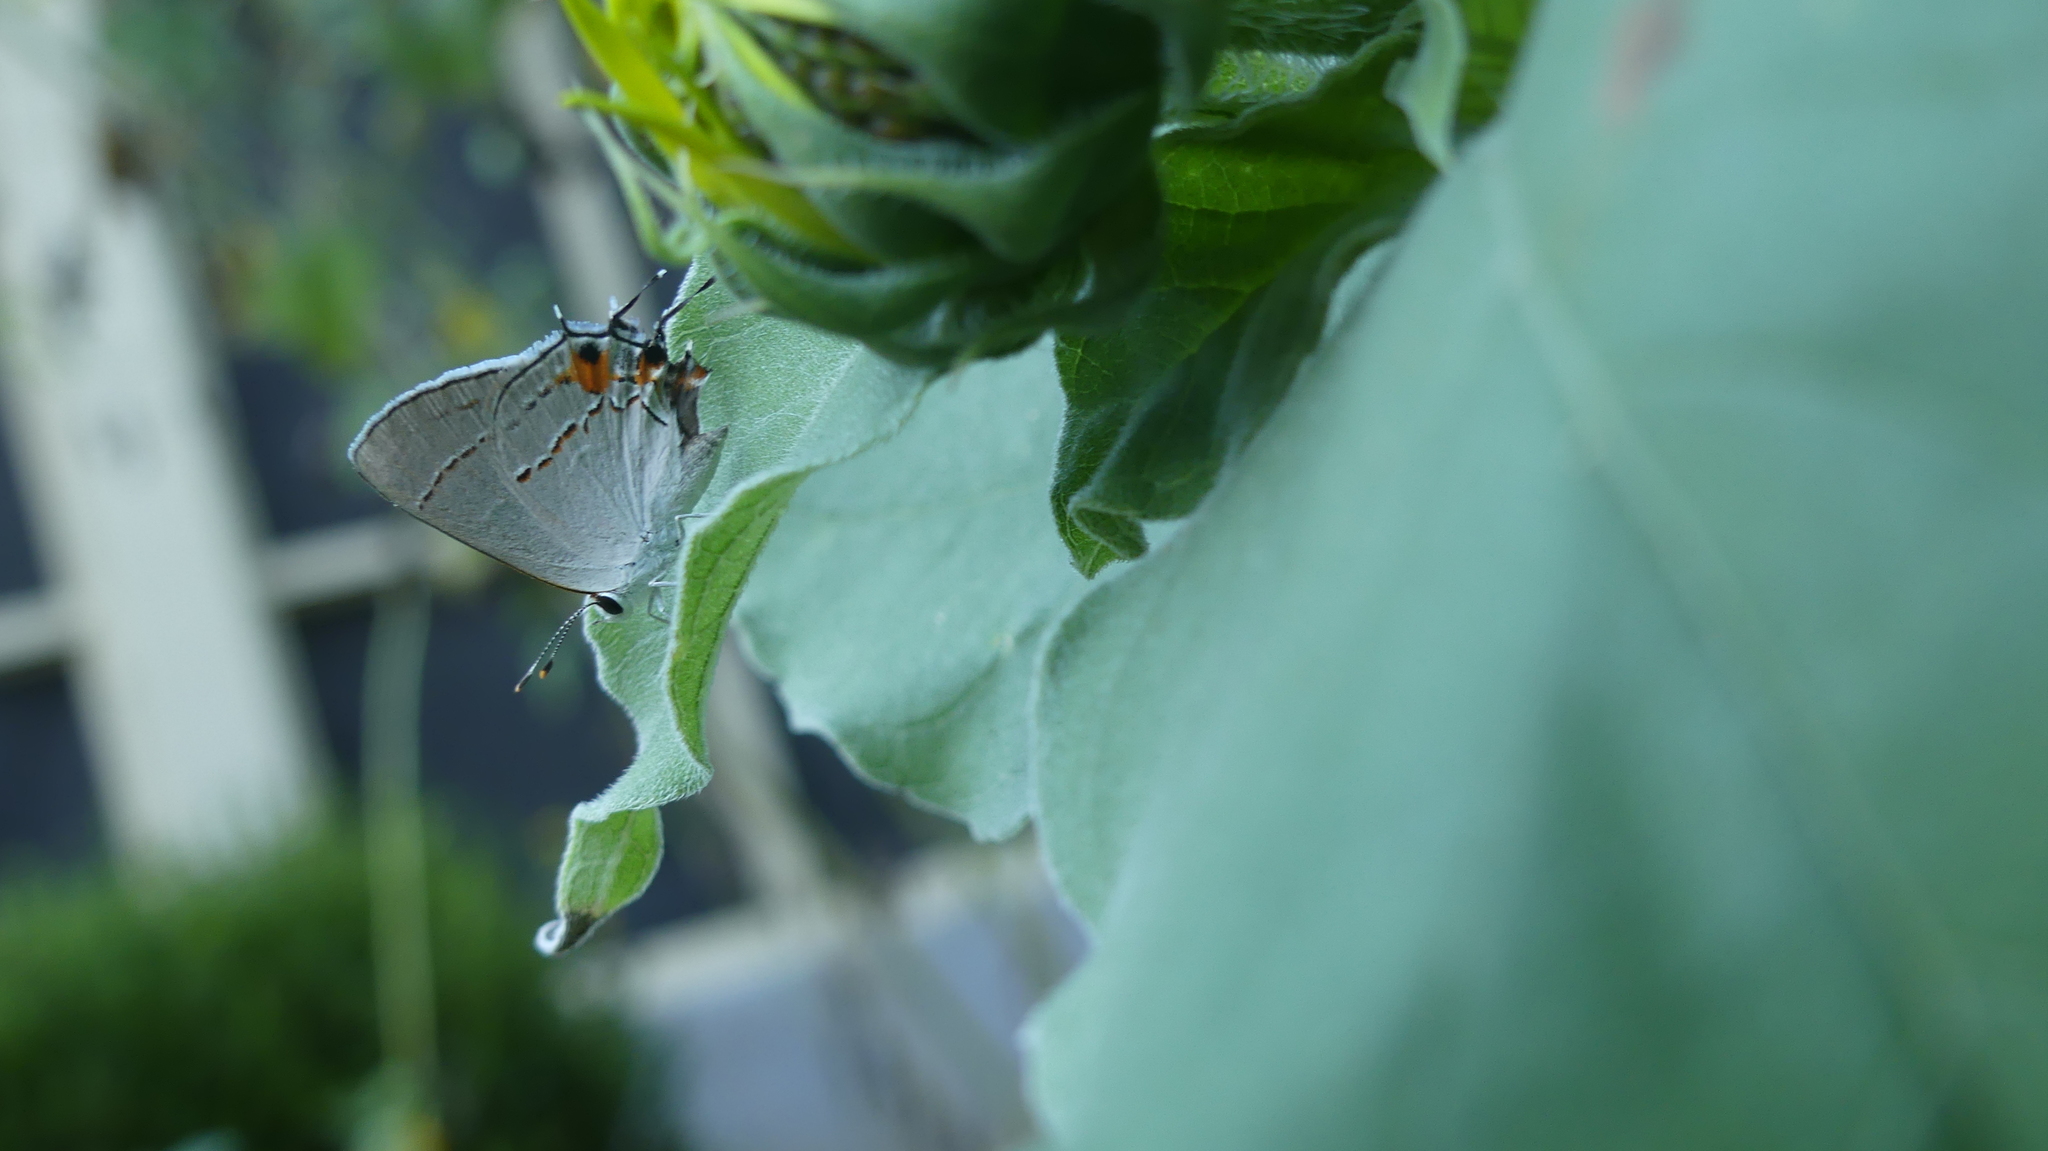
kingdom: Animalia
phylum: Arthropoda
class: Insecta
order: Lepidoptera
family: Lycaenidae
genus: Strymon
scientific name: Strymon melinus
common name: Gray hairstreak
